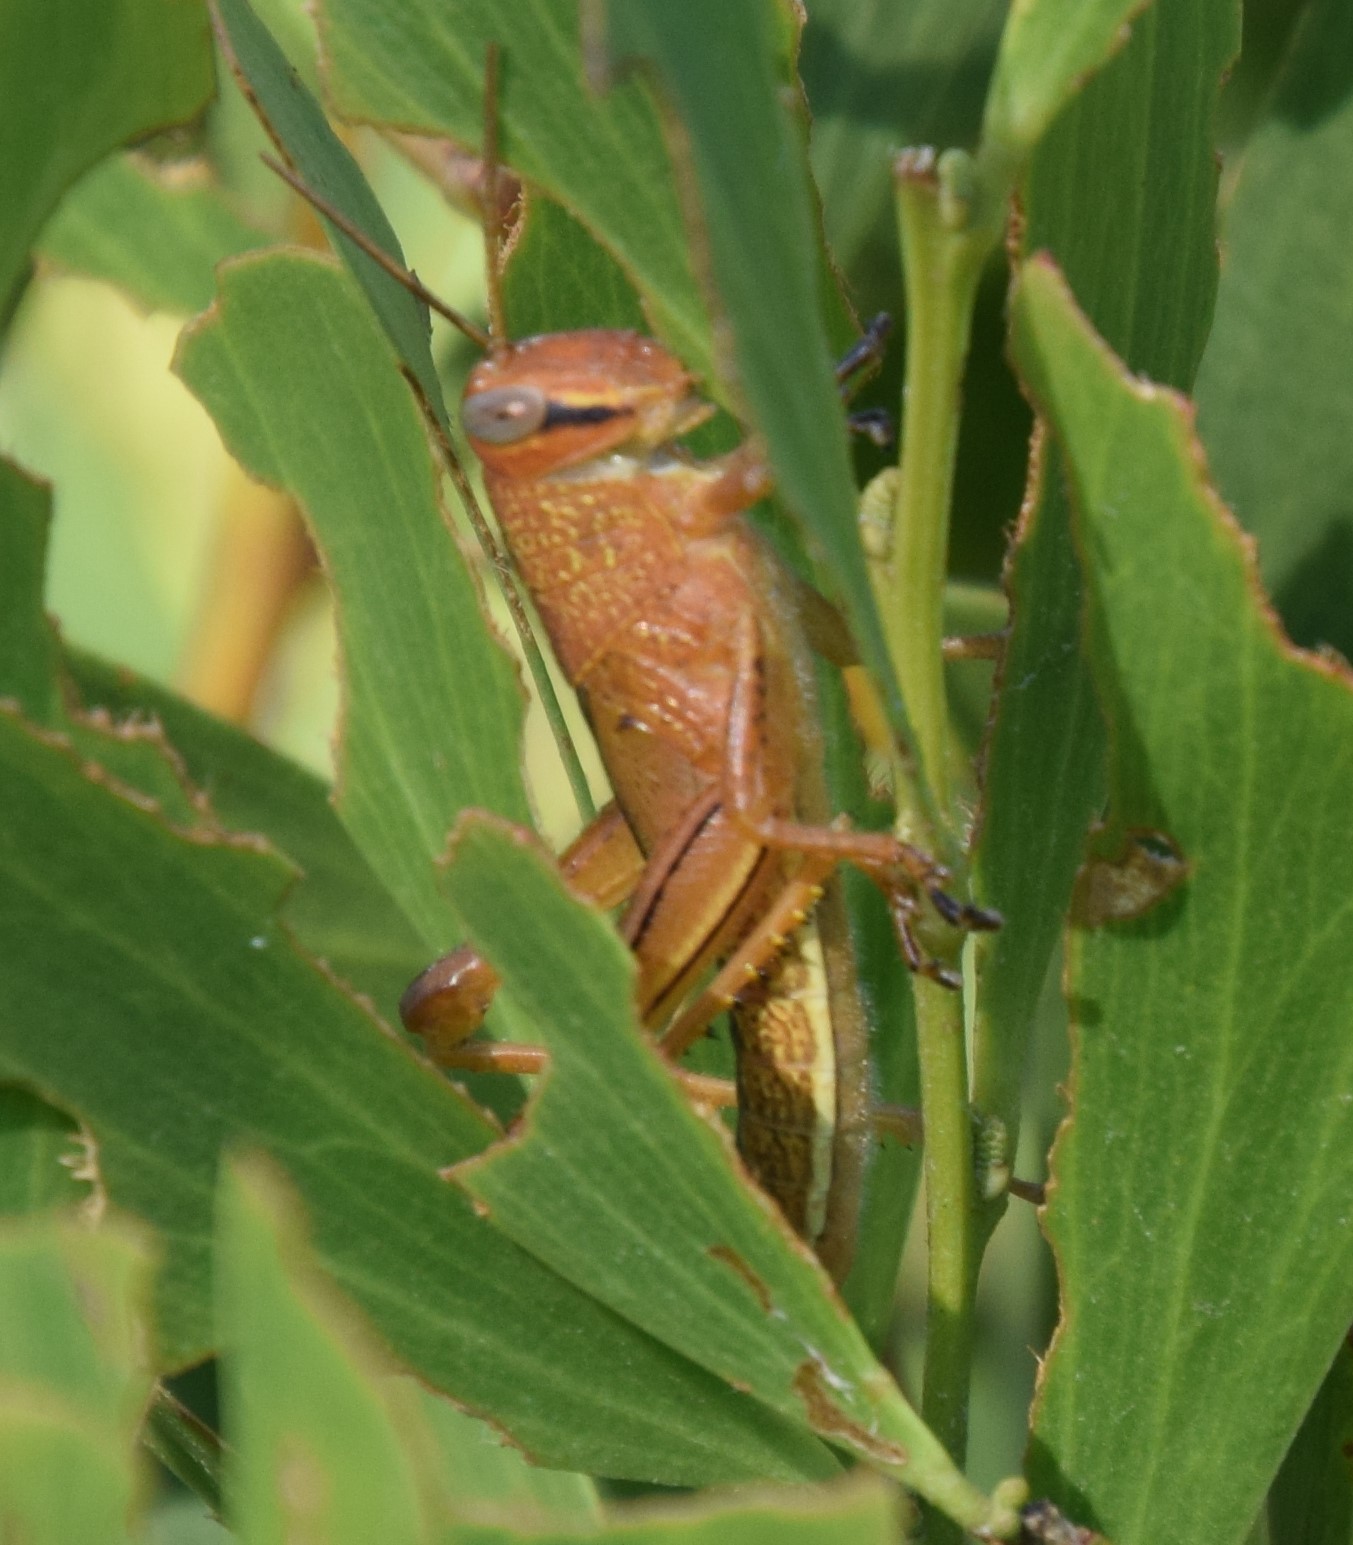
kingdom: Animalia
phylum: Arthropoda
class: Insecta
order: Orthoptera
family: Acrididae
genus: Valanga
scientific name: Valanga irregularis
